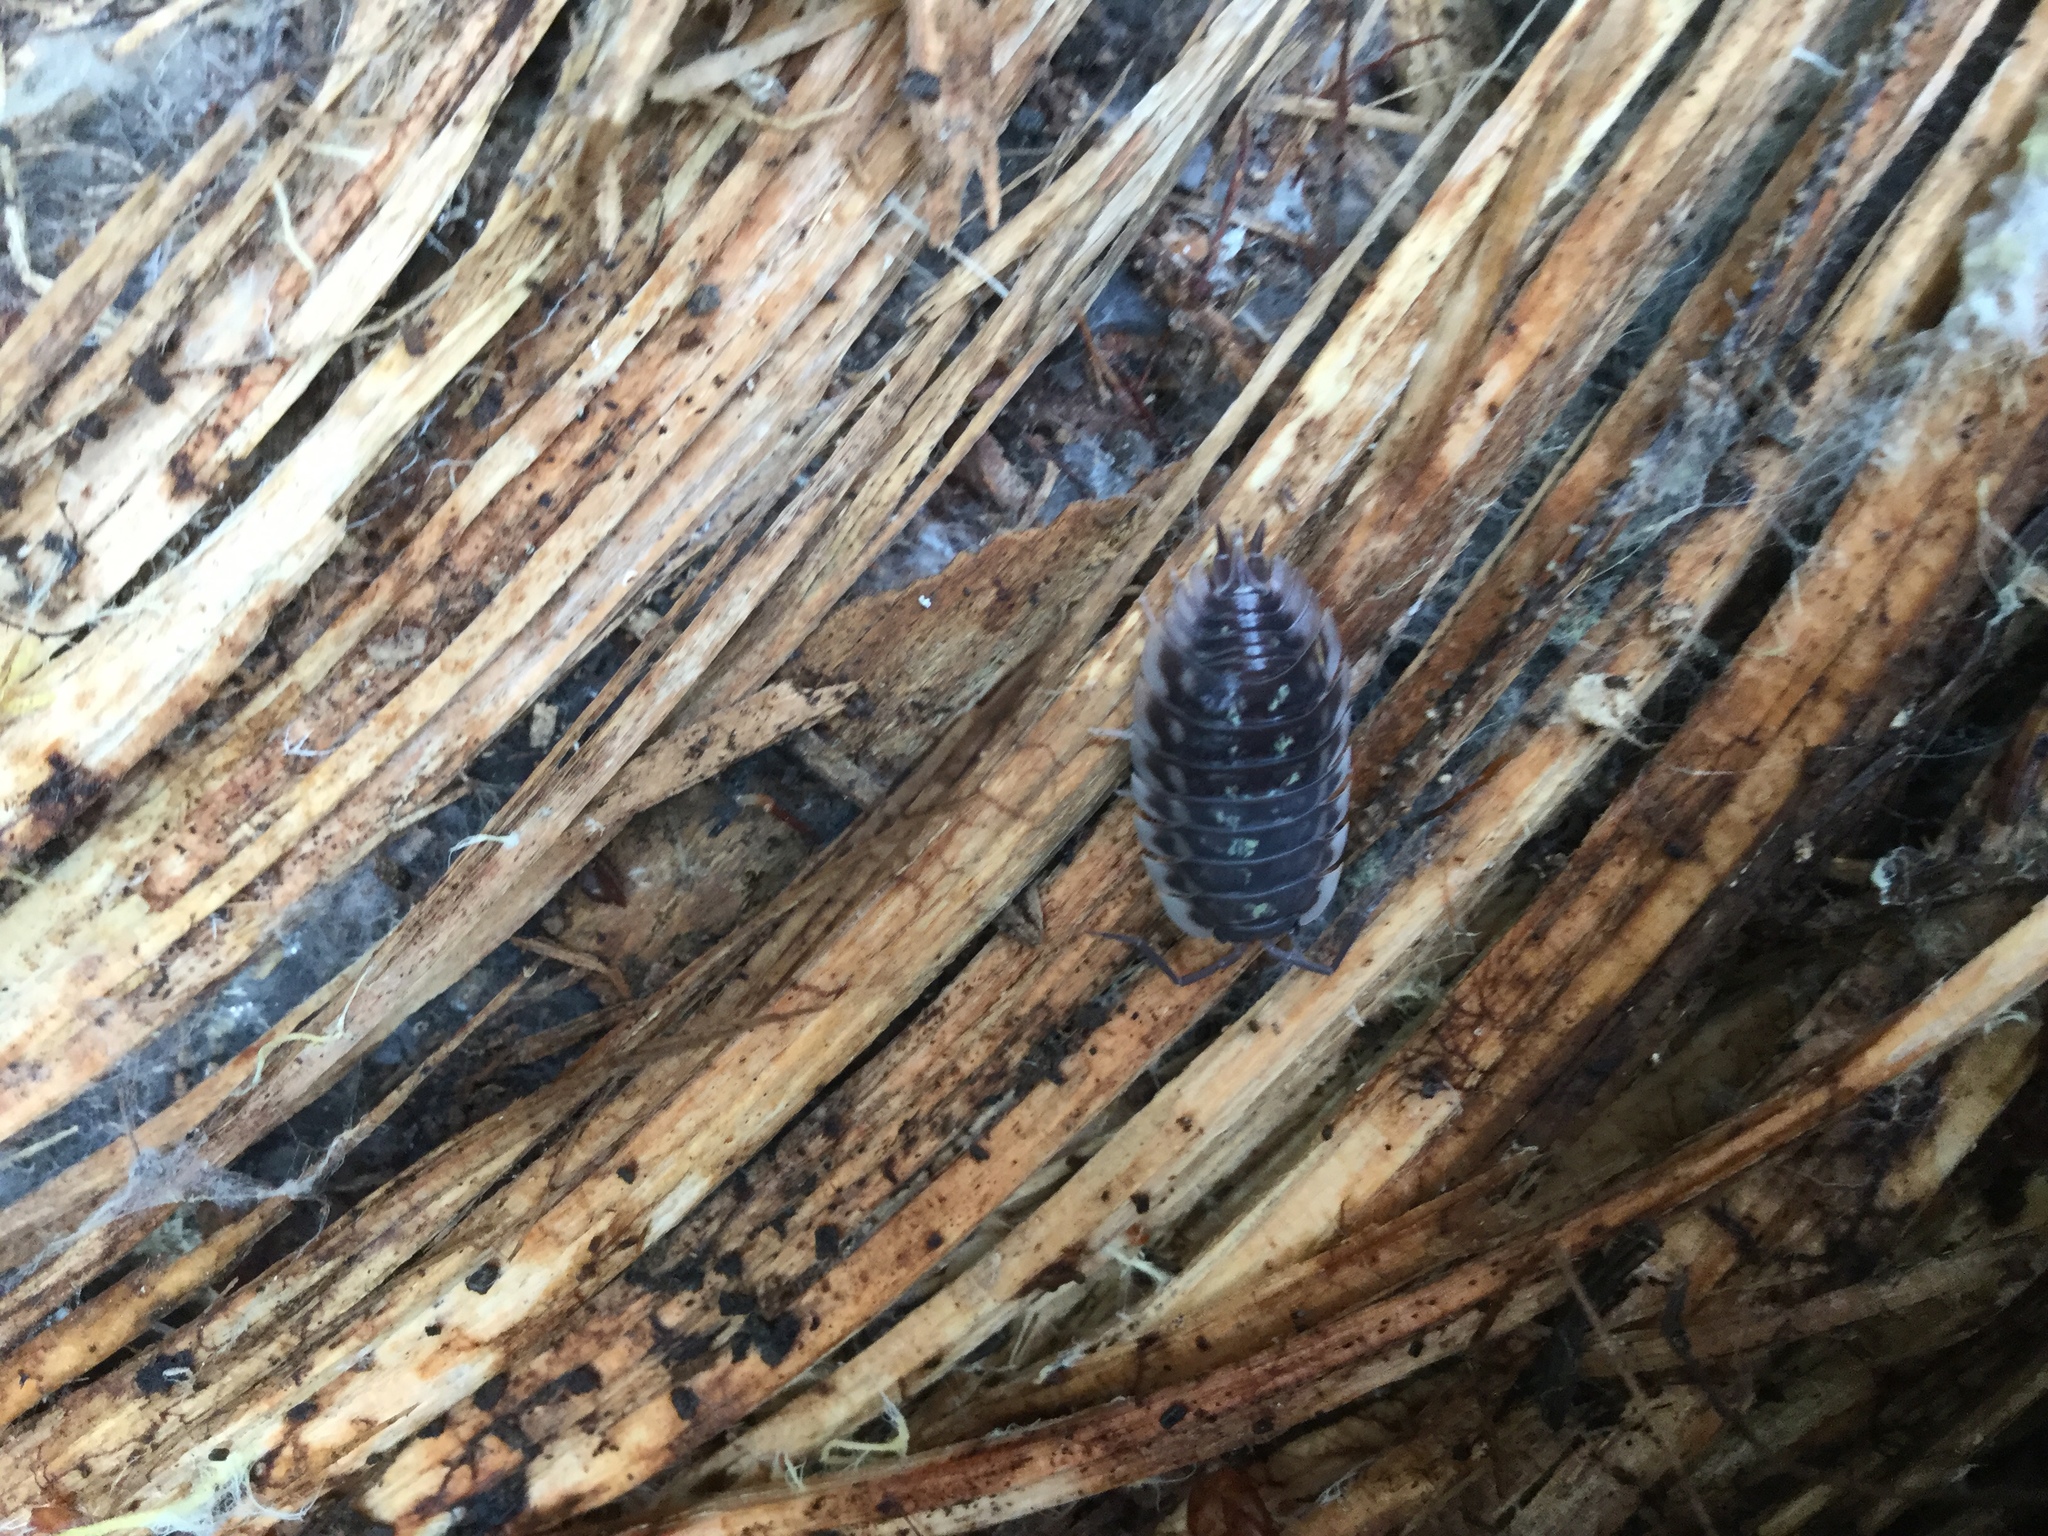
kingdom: Animalia
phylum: Arthropoda
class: Malacostraca
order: Isopoda
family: Oniscidae
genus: Oniscus
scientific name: Oniscus asellus
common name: Common shiny woodlouse
